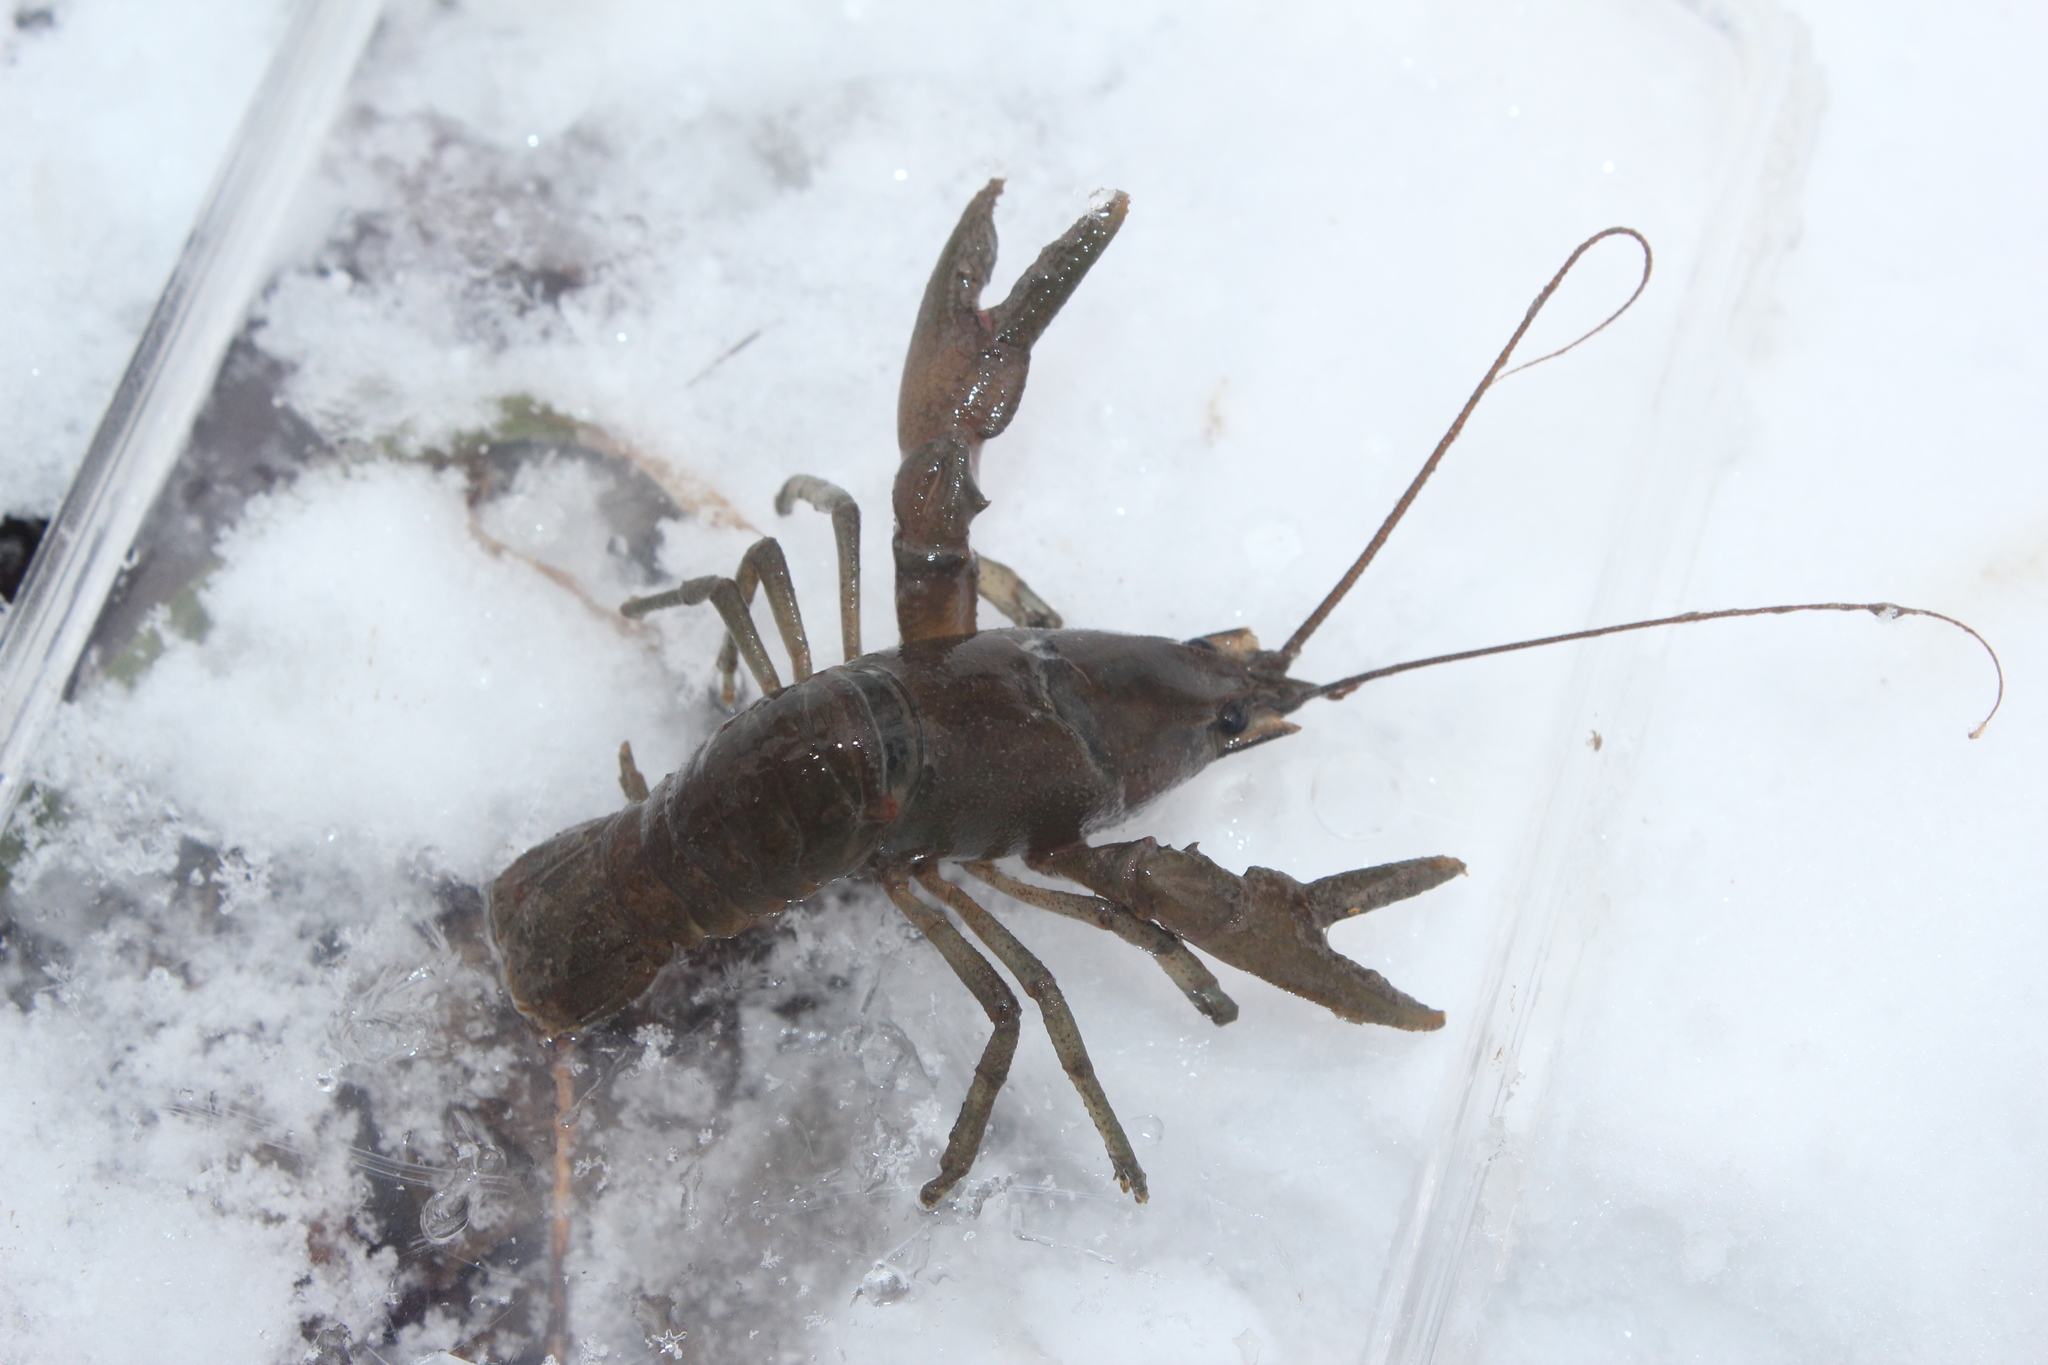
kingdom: Animalia
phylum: Arthropoda
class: Malacostraca
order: Decapoda
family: Cambaridae
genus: Cambarus
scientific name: Cambarus robustus
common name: Big water crayfish
